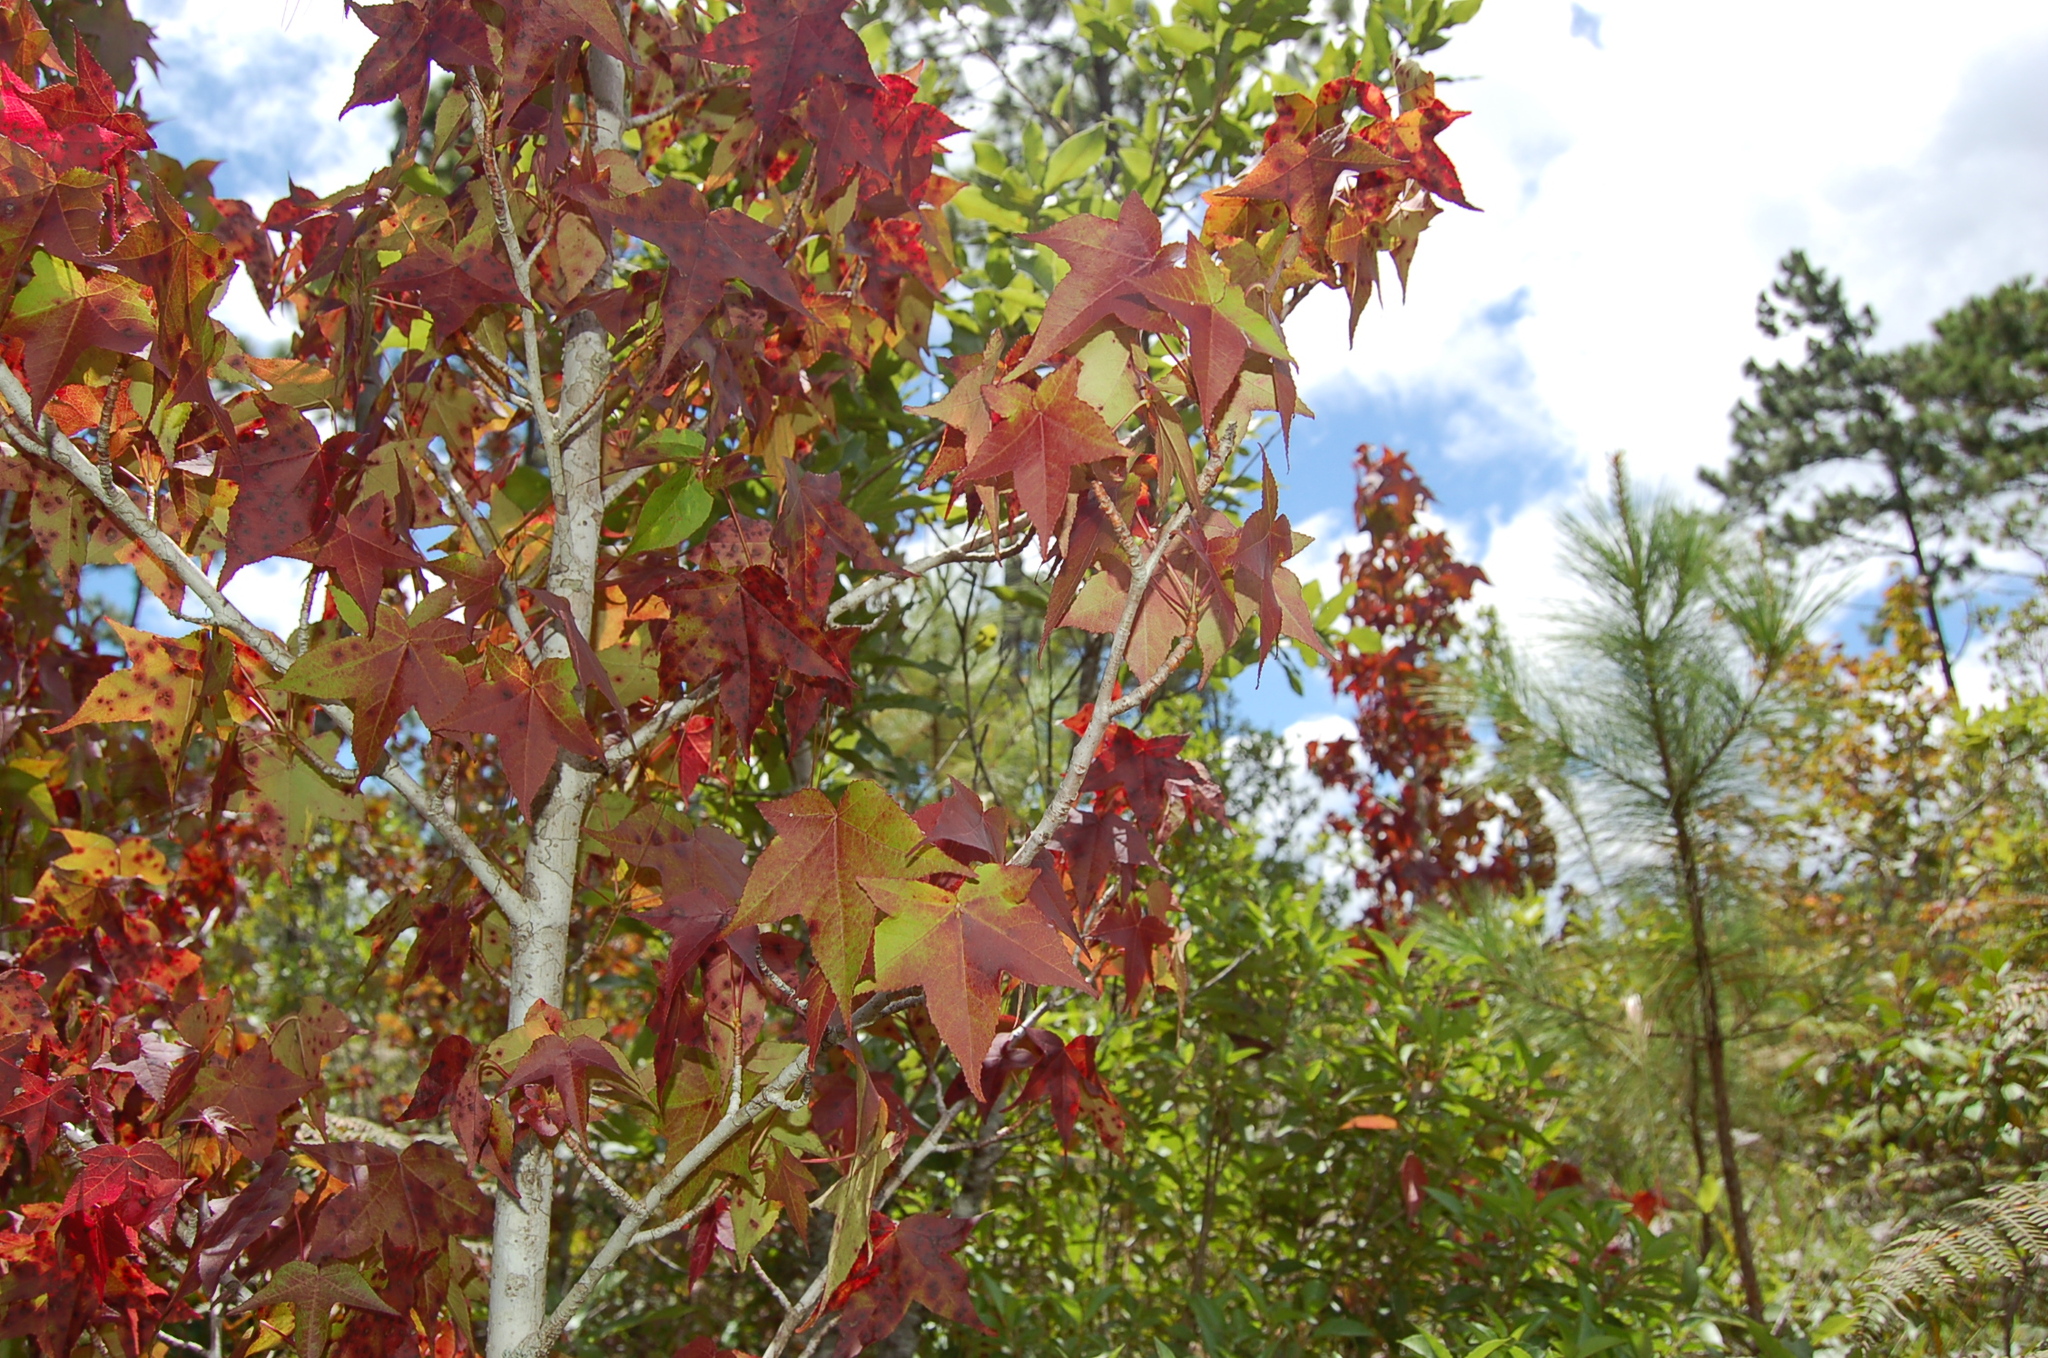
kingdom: Plantae
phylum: Tracheophyta
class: Magnoliopsida
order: Saxifragales
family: Altingiaceae
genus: Liquidambar
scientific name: Liquidambar styraciflua
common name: Sweet gum
